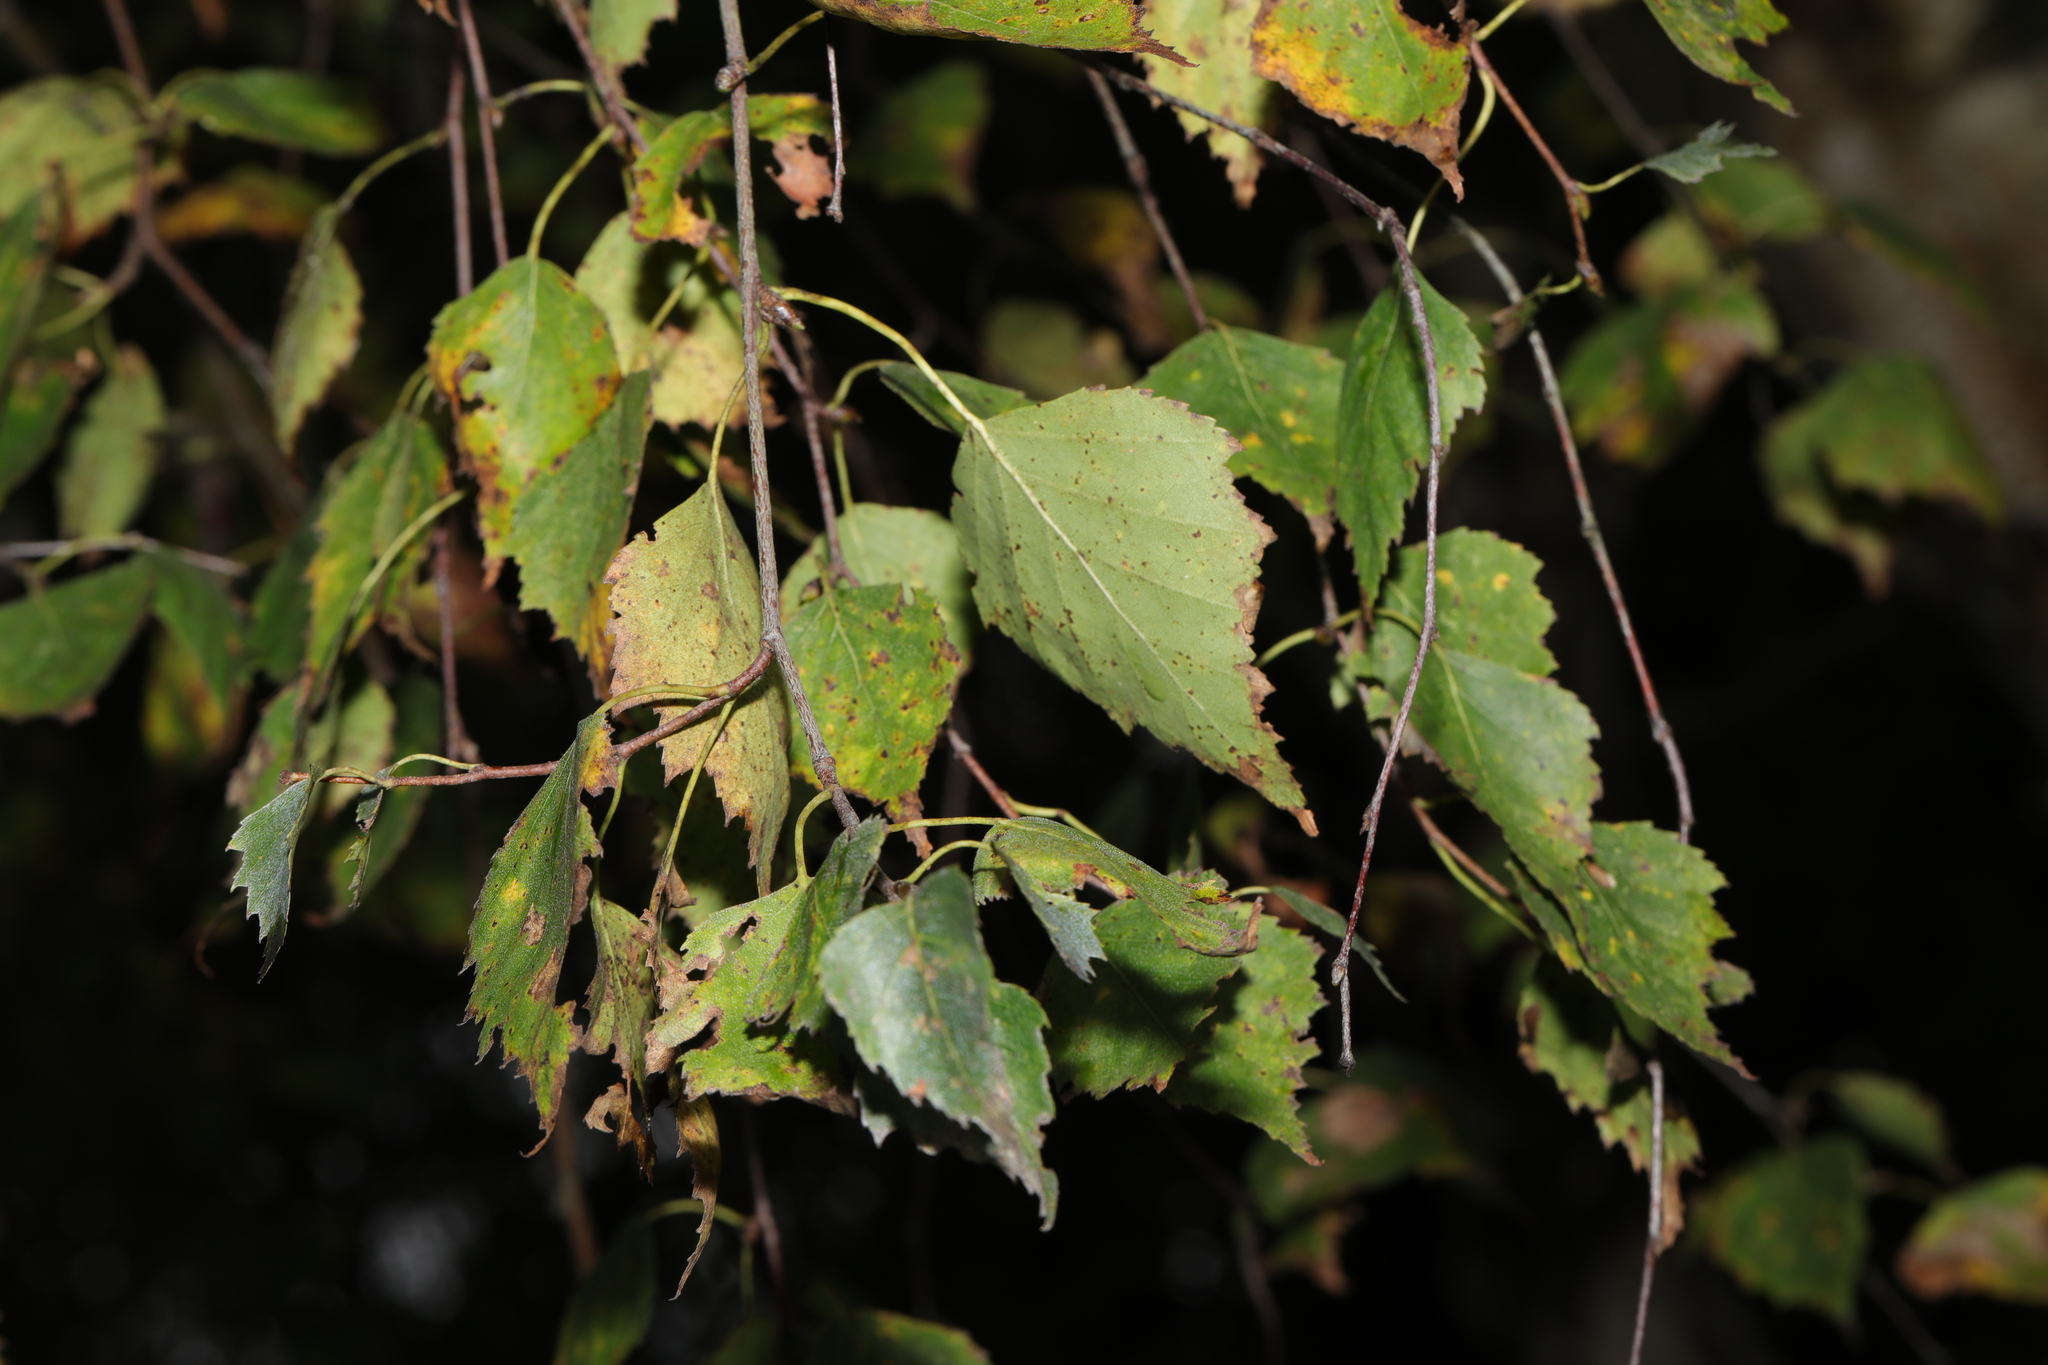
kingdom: Plantae
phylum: Tracheophyta
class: Magnoliopsida
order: Fagales
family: Betulaceae
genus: Betula
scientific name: Betula pendula
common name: Silver birch
